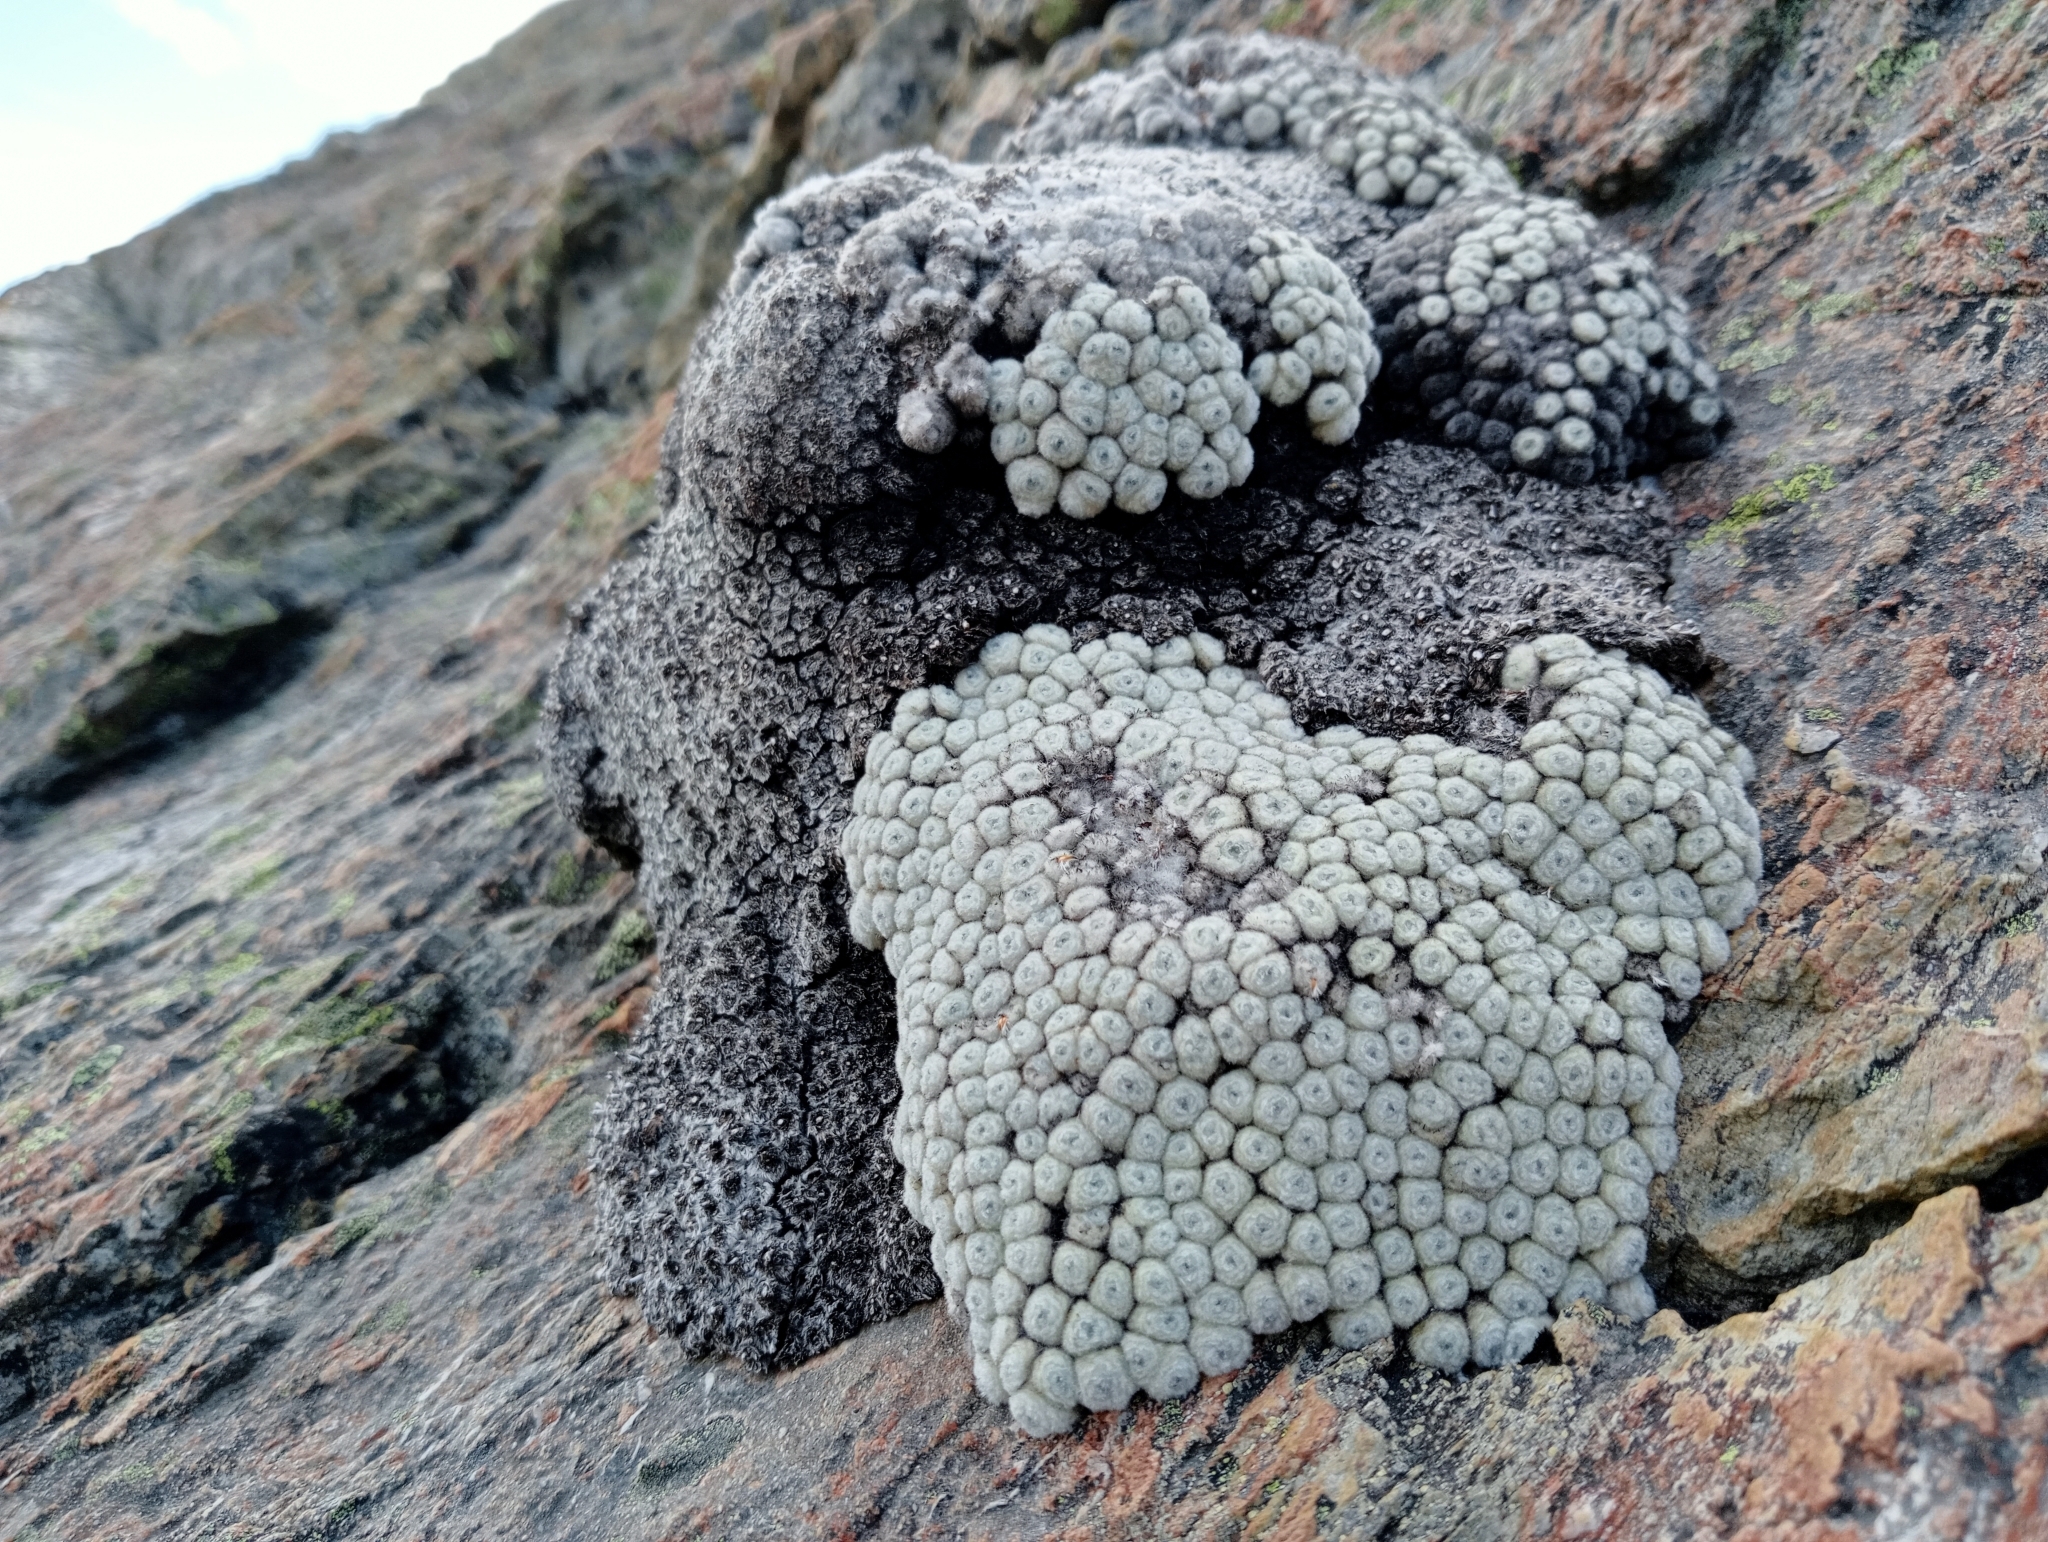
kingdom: Plantae
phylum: Tracheophyta
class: Magnoliopsida
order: Asterales
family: Asteraceae
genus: Raoulia
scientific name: Raoulia eximia
